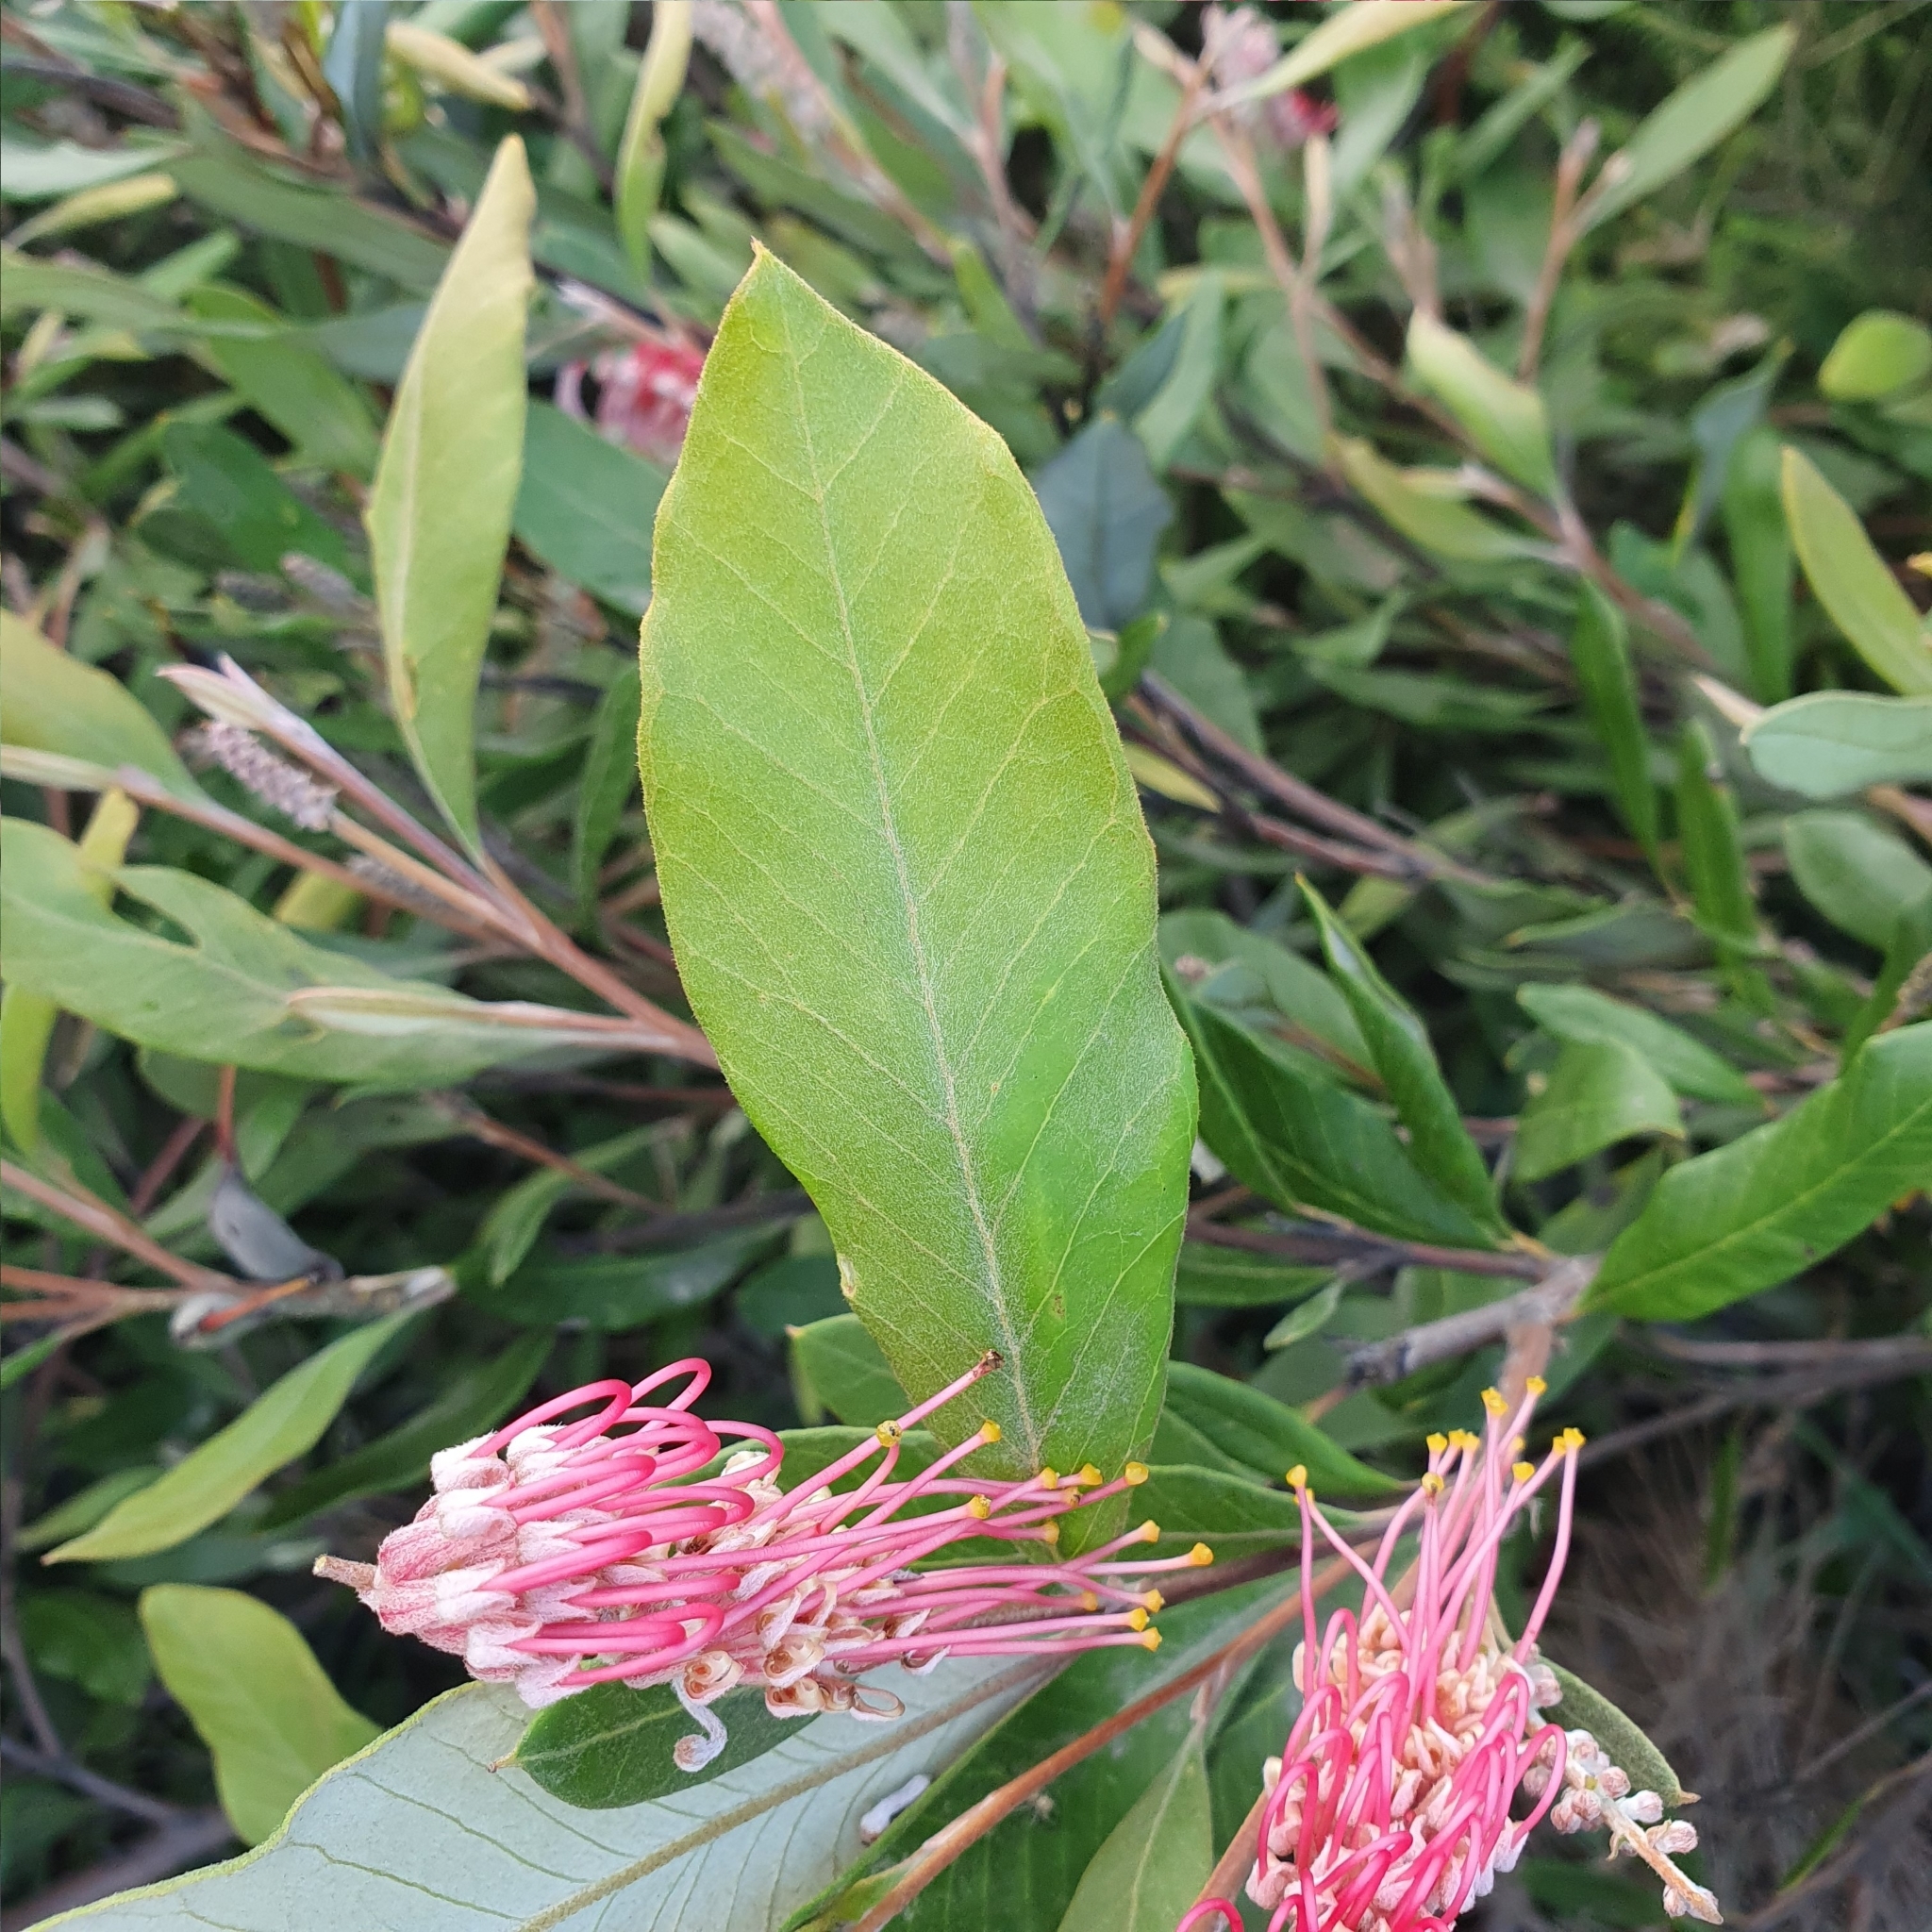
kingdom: Plantae
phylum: Tracheophyta
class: Magnoliopsida
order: Proteales
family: Proteaceae
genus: Grevillea
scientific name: Grevillea macleayana
